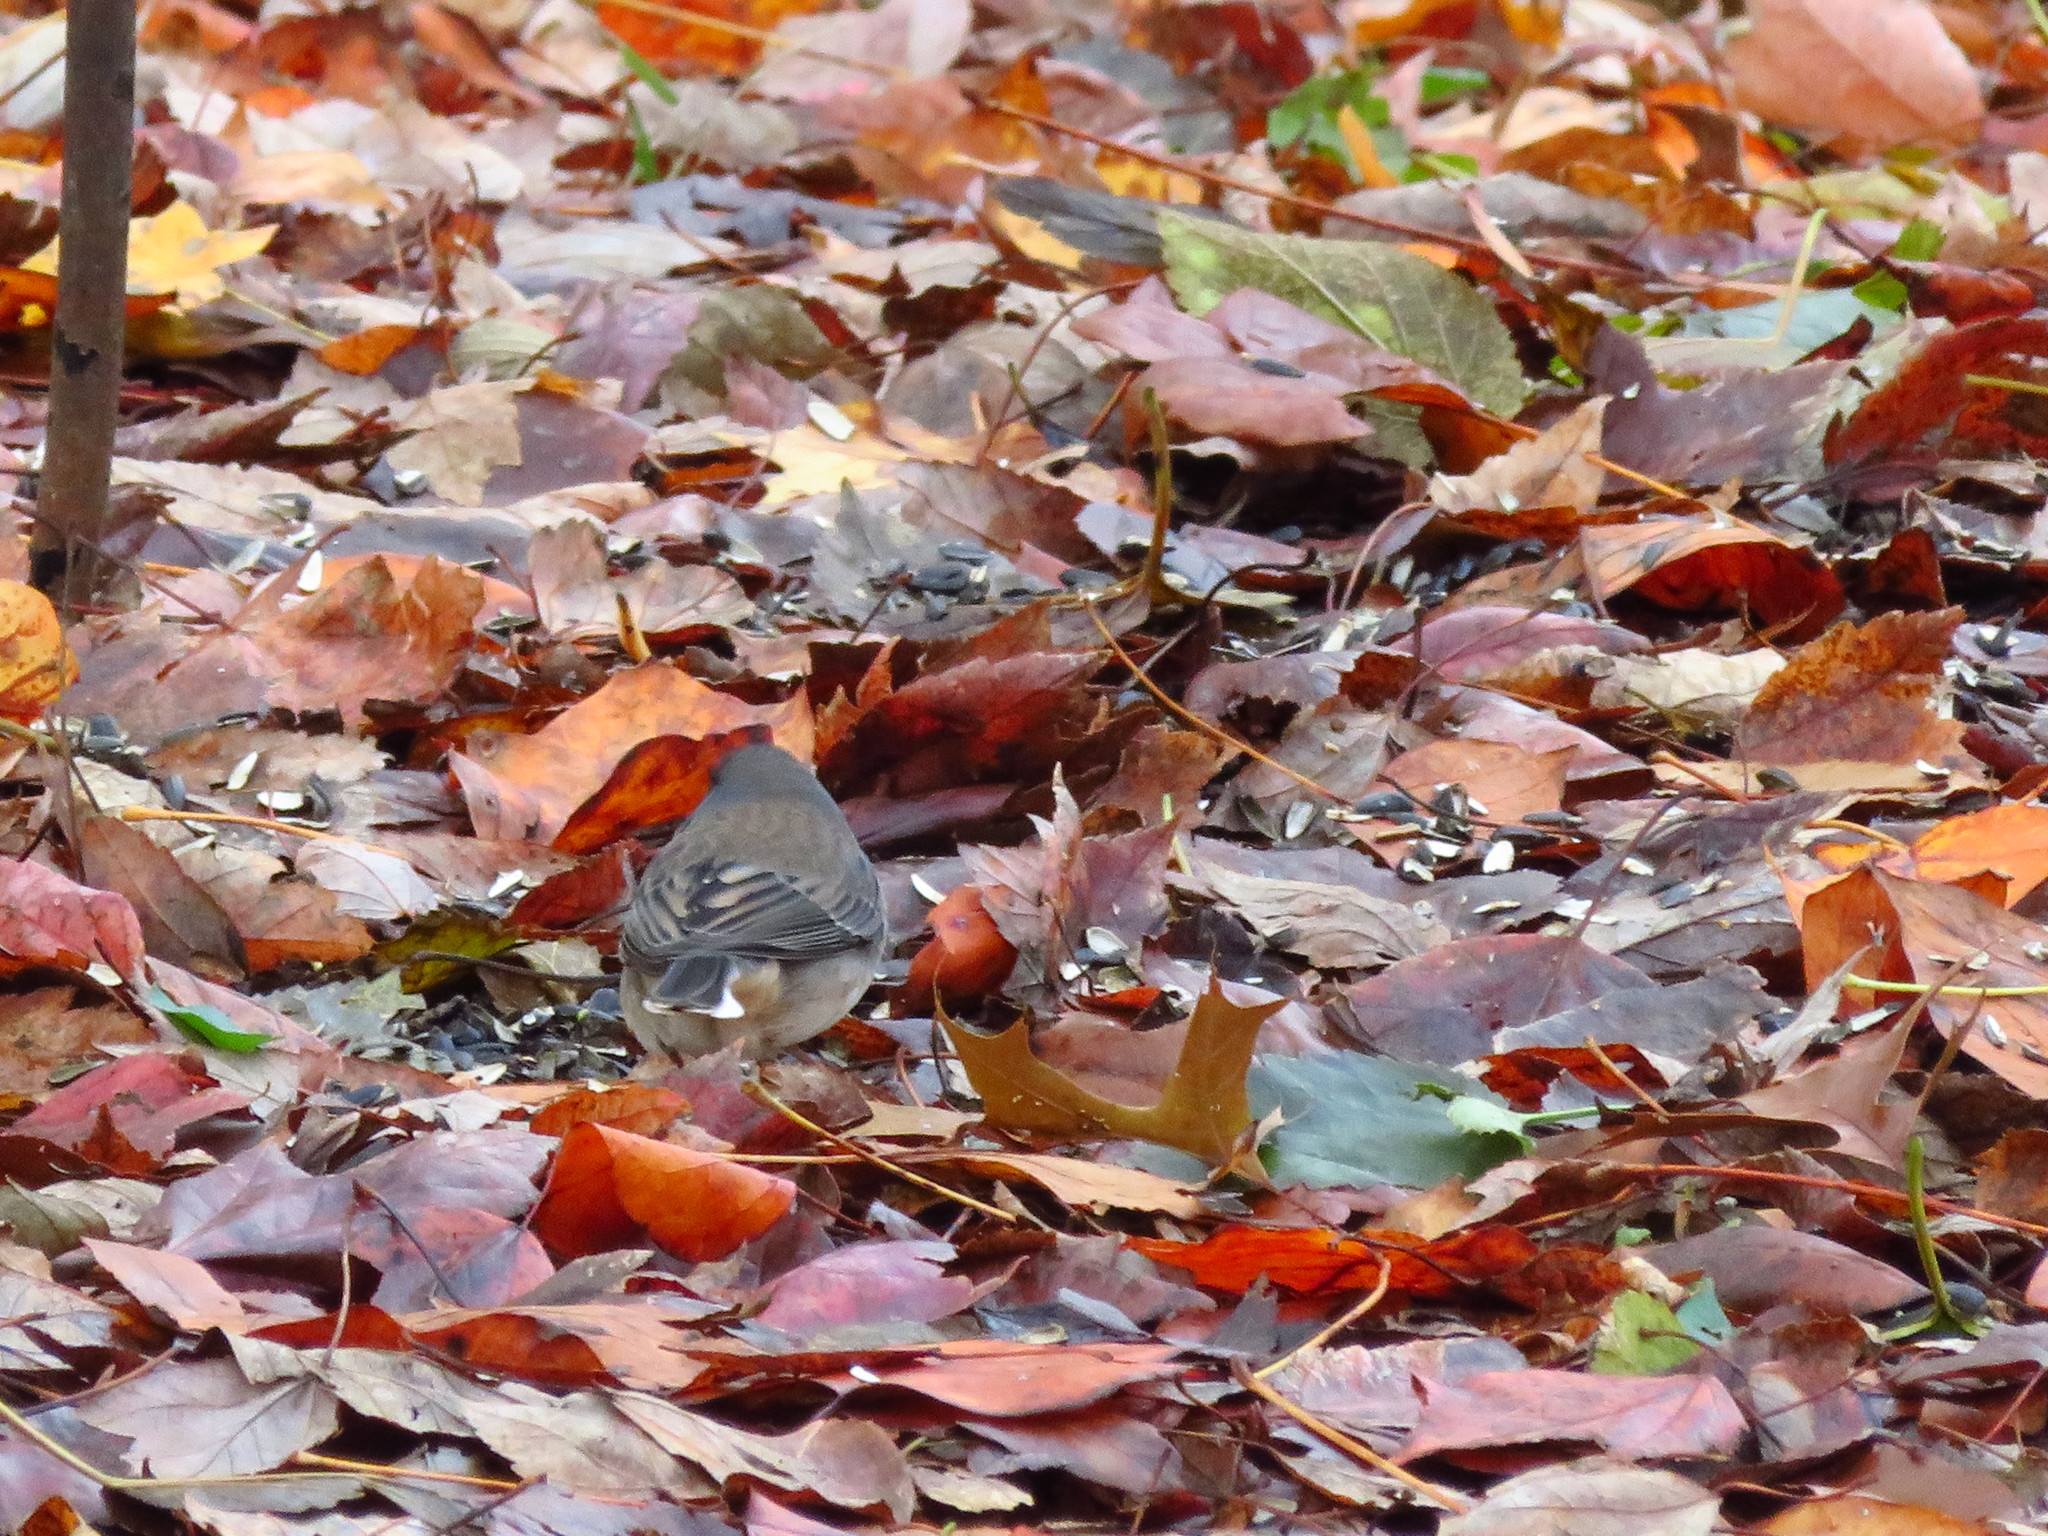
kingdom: Animalia
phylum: Chordata
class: Aves
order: Passeriformes
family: Passerellidae
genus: Junco
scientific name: Junco hyemalis
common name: Dark-eyed junco
